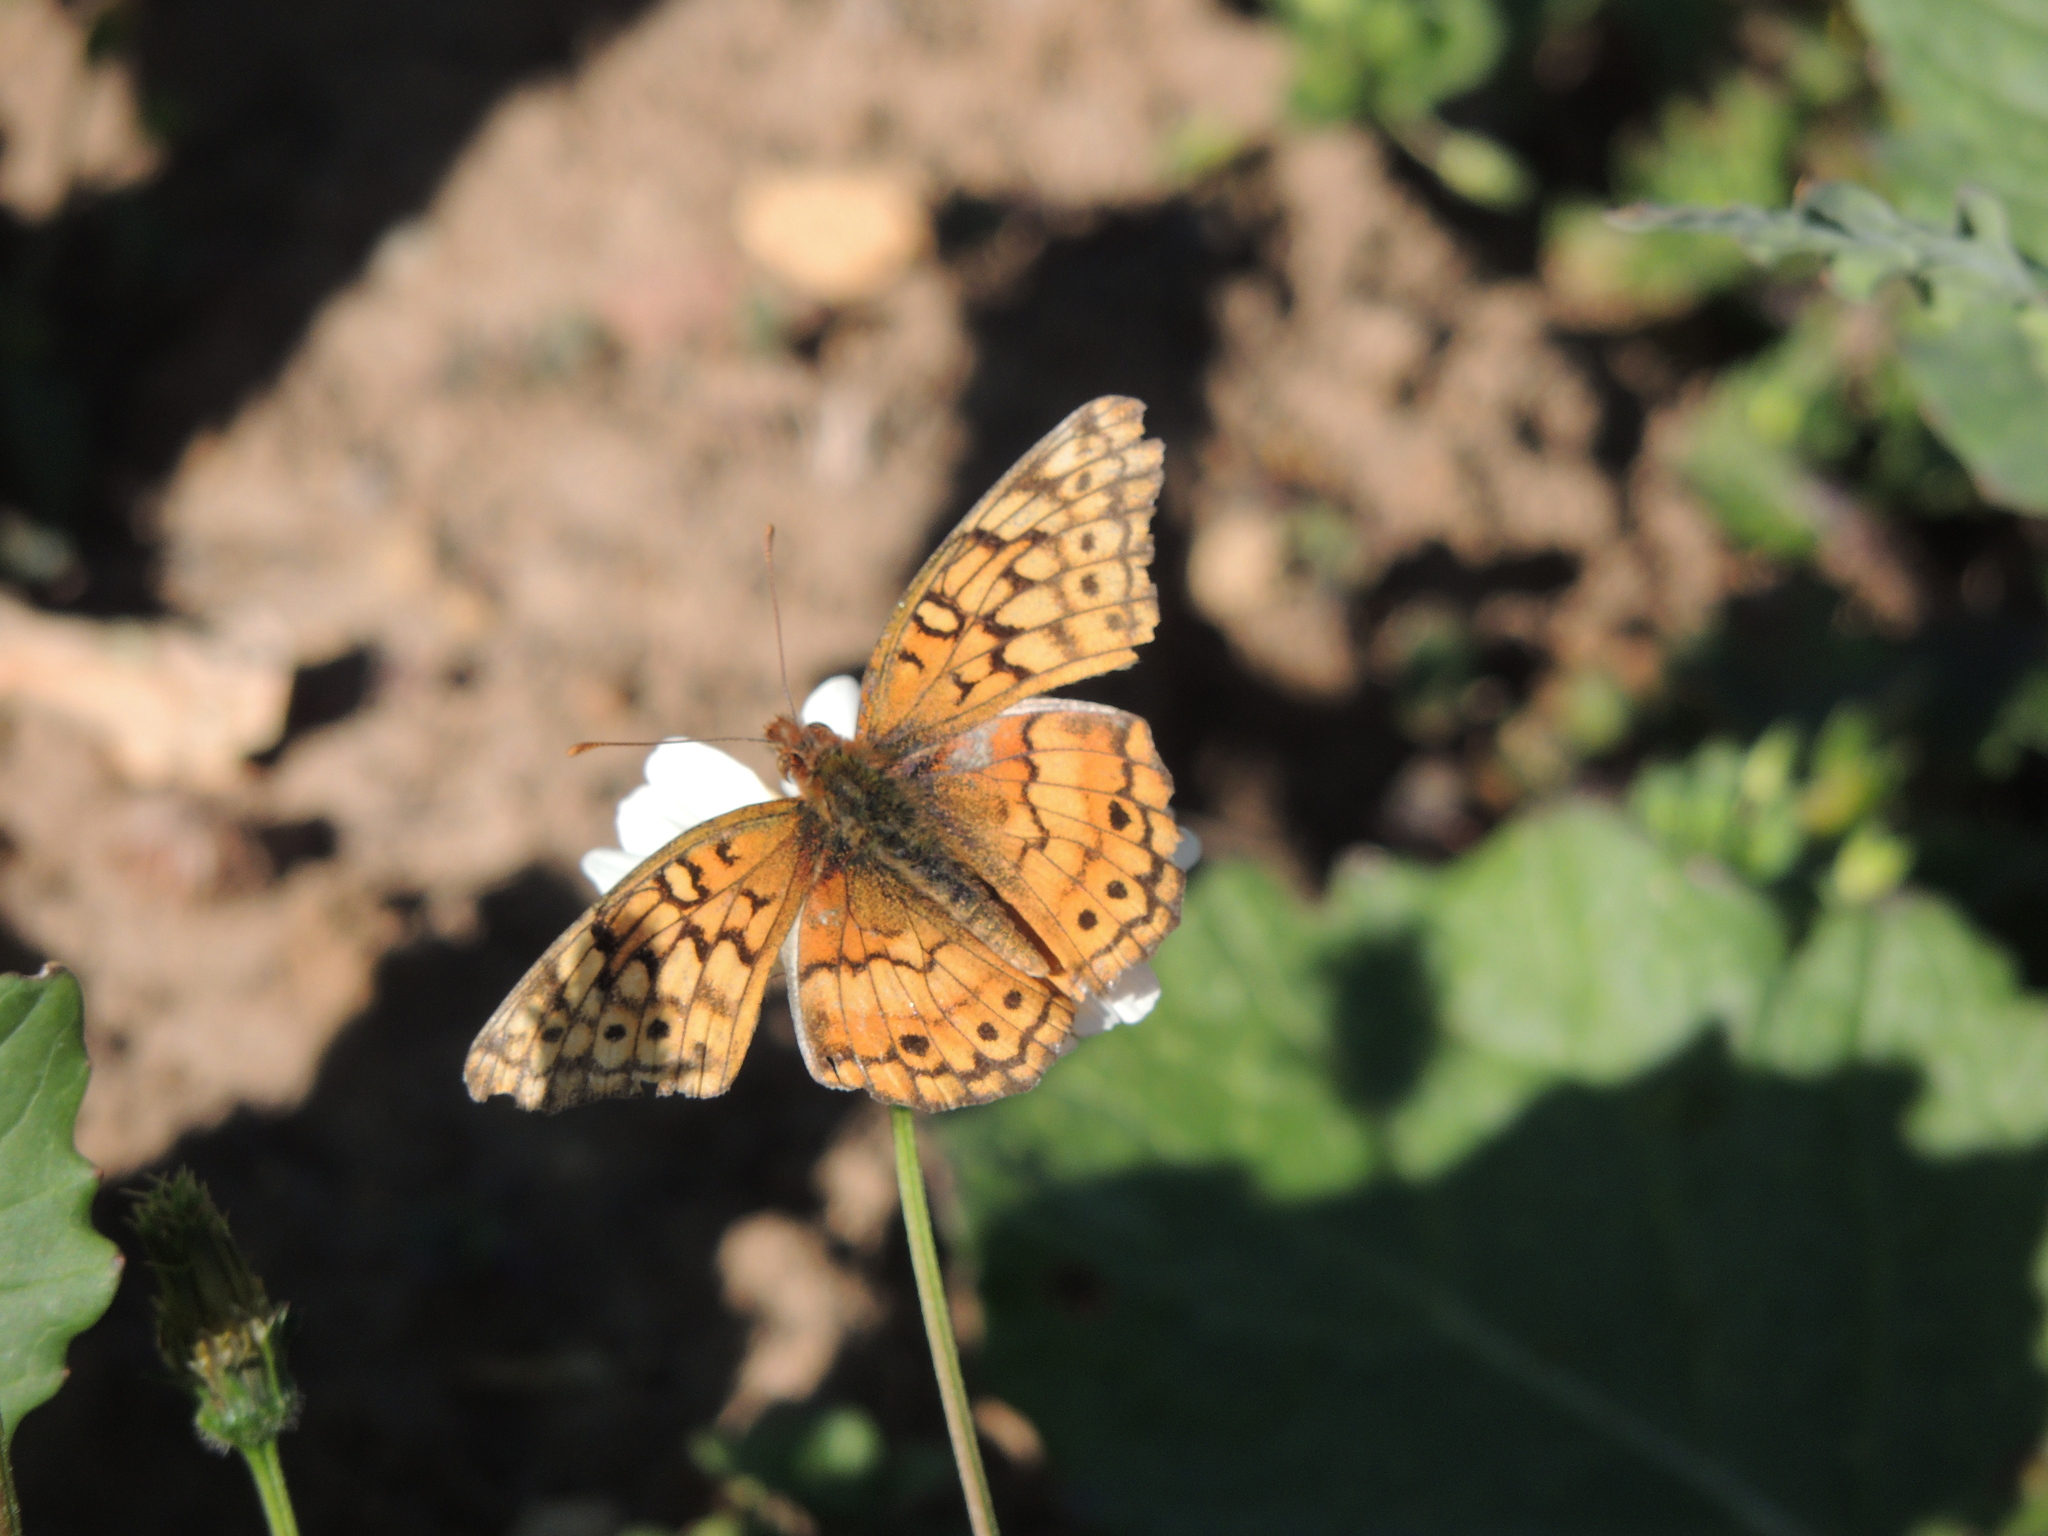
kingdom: Animalia
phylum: Arthropoda
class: Insecta
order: Lepidoptera
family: Nymphalidae
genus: Euptoieta
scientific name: Euptoieta claudia
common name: Variegated fritillary
